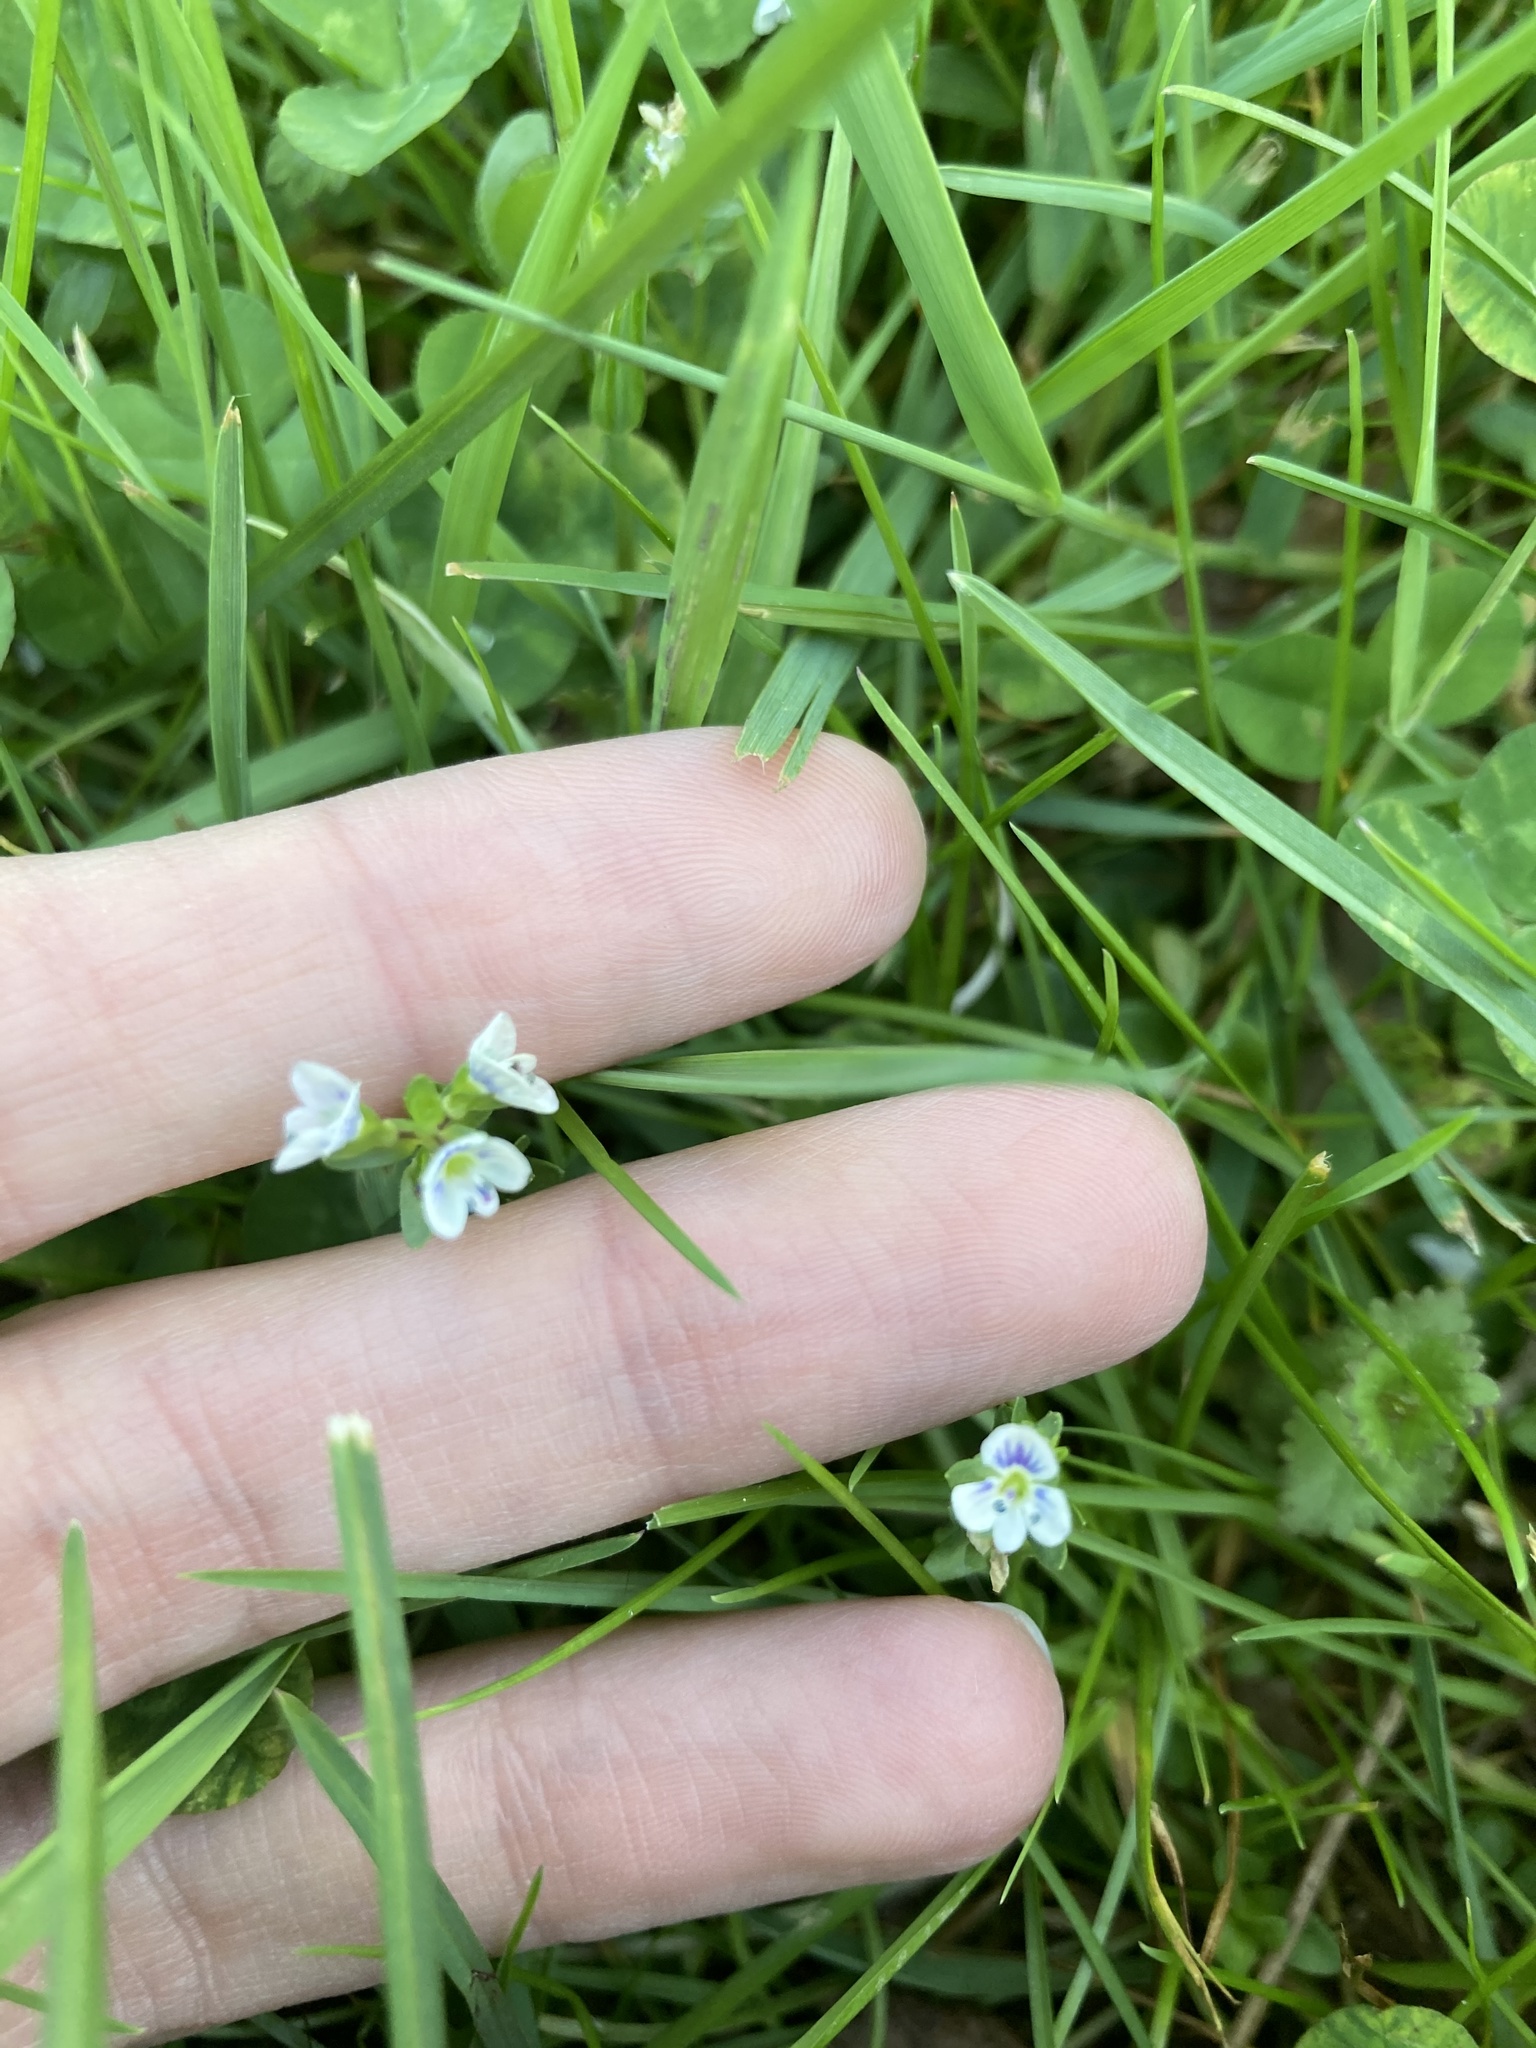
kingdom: Plantae
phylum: Tracheophyta
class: Magnoliopsida
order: Lamiales
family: Plantaginaceae
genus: Veronica
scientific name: Veronica serpyllifolia
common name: Thyme-leaved speedwell
